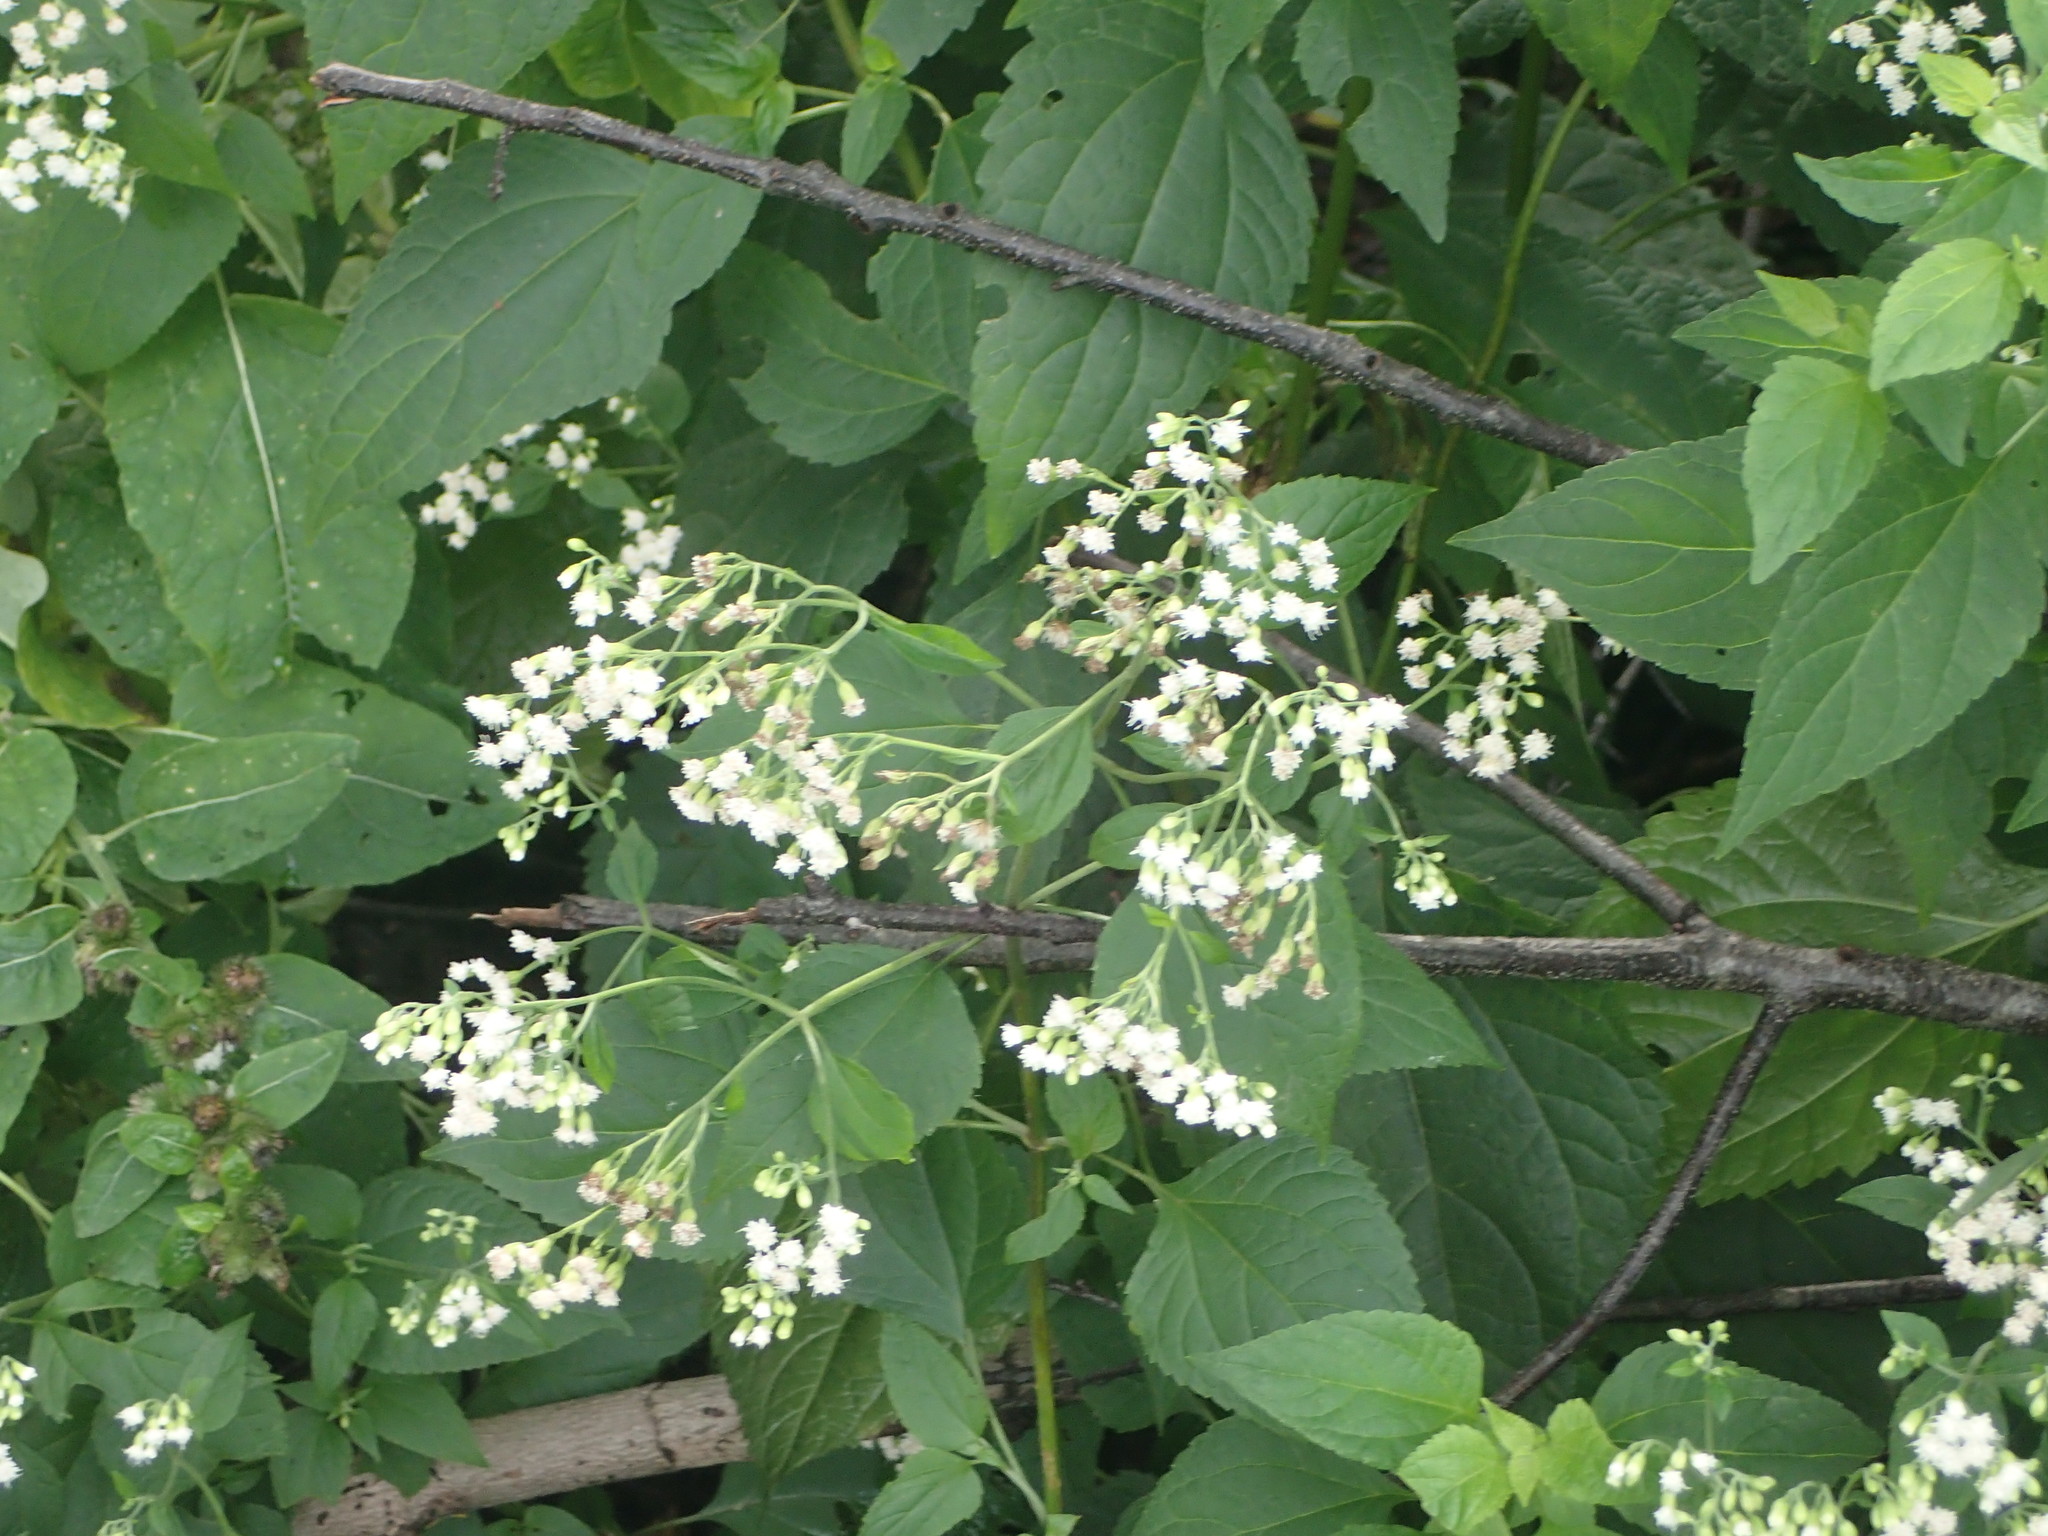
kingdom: Plantae
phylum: Tracheophyta
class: Magnoliopsida
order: Asterales
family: Asteraceae
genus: Ageratina
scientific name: Ageratina altissima
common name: White snakeroot
